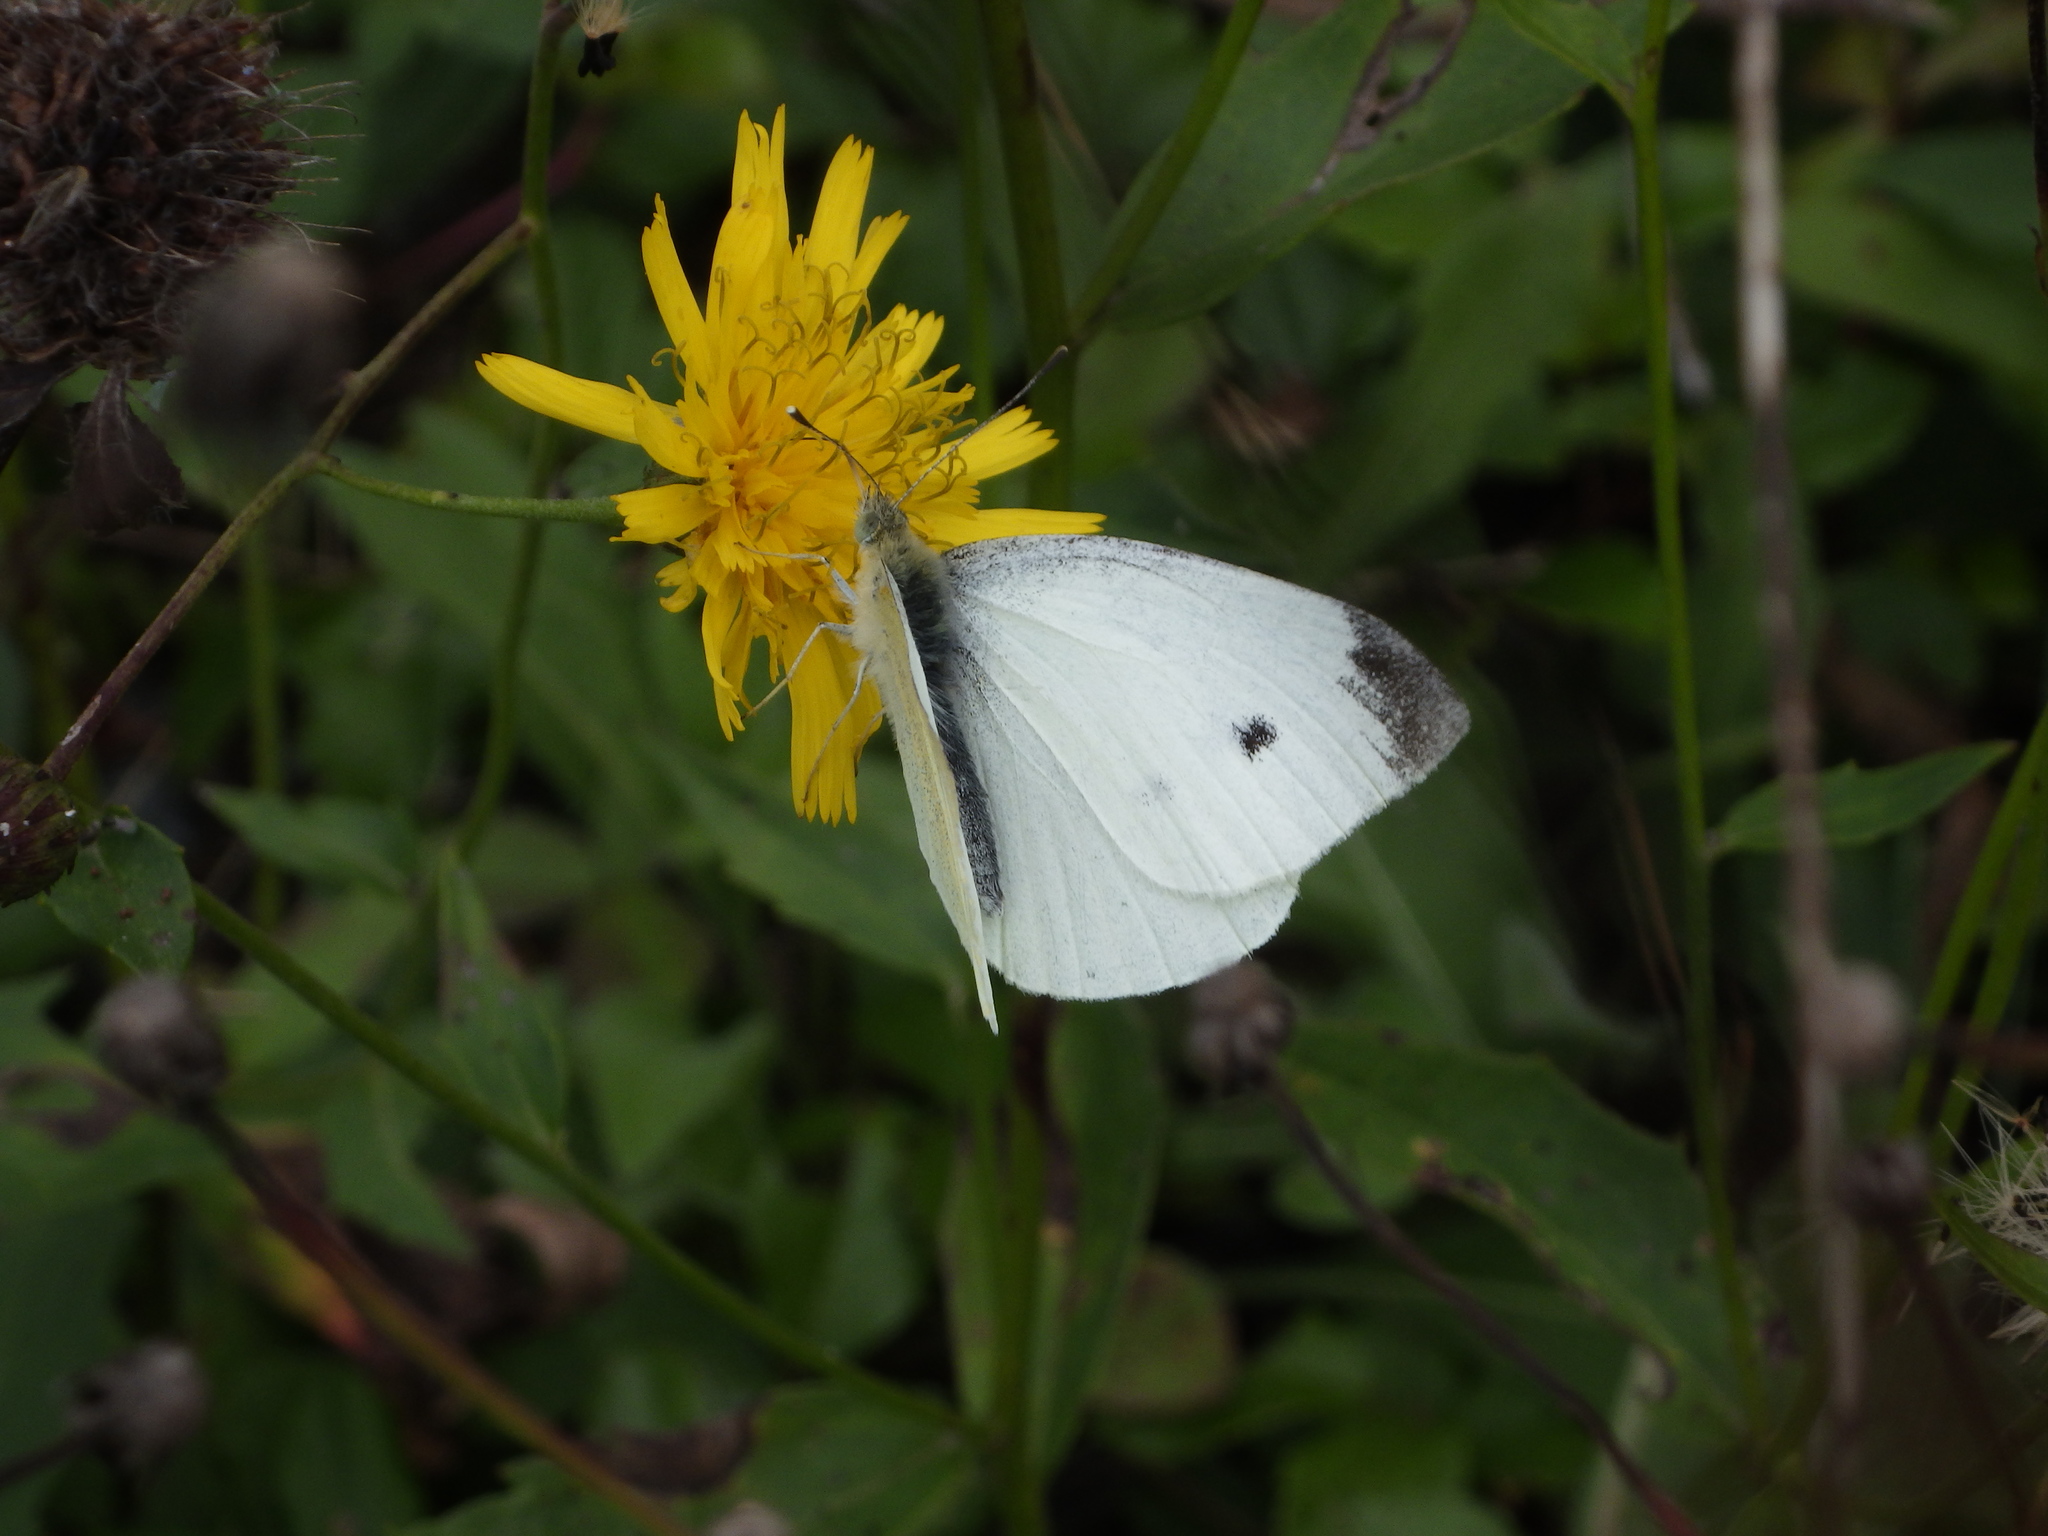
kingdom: Animalia
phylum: Arthropoda
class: Insecta
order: Lepidoptera
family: Pieridae
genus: Pieris
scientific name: Pieris rapae
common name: Small white
